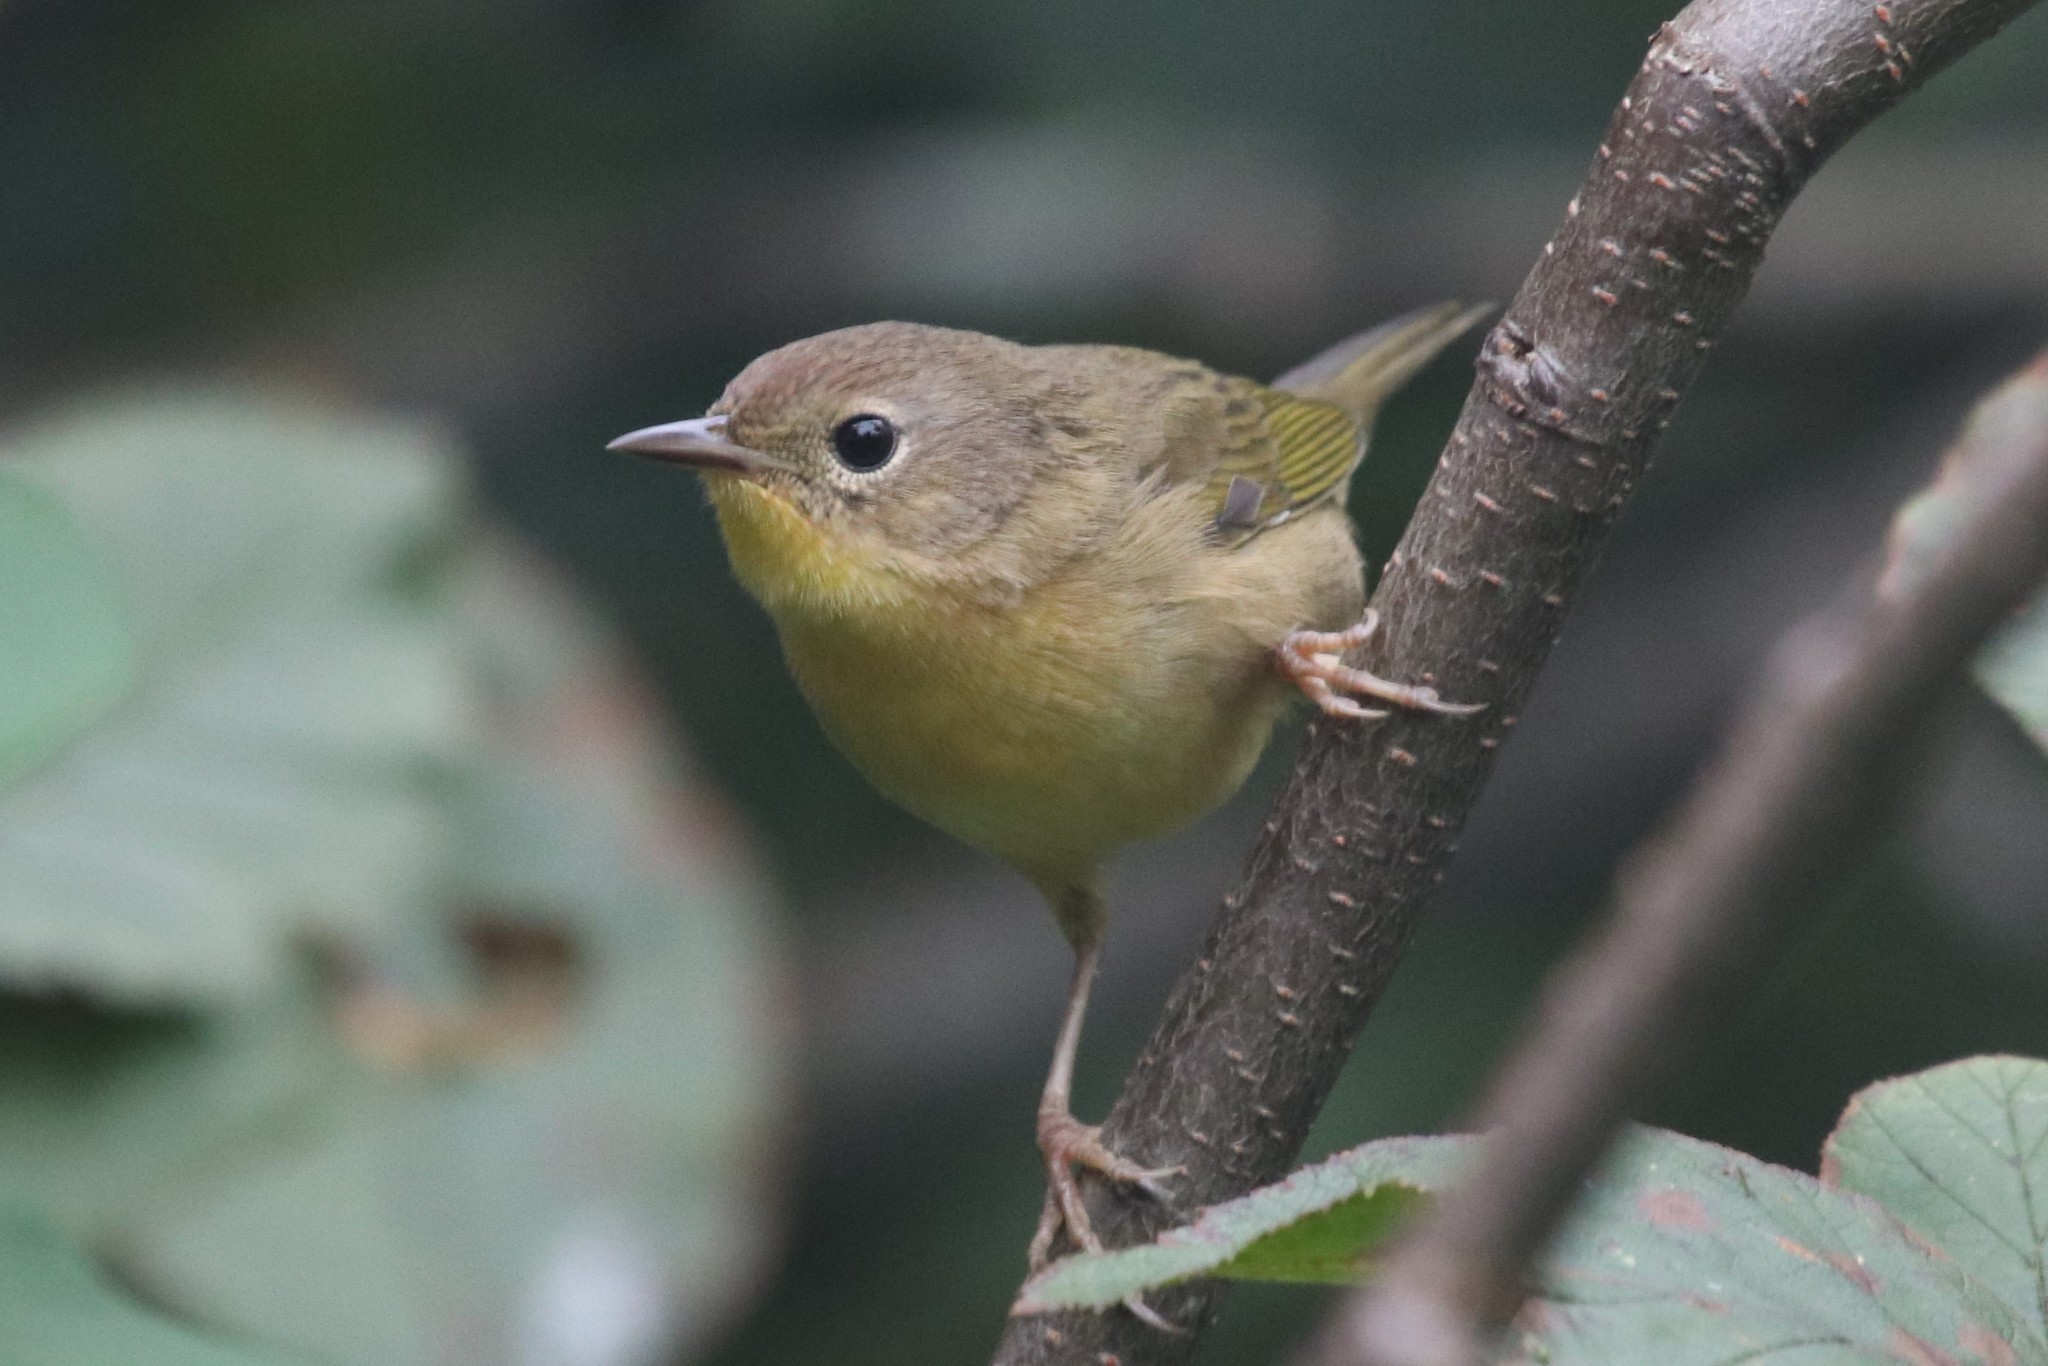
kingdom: Animalia
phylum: Chordata
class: Aves
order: Passeriformes
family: Parulidae
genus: Geothlypis
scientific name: Geothlypis trichas
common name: Common yellowthroat
